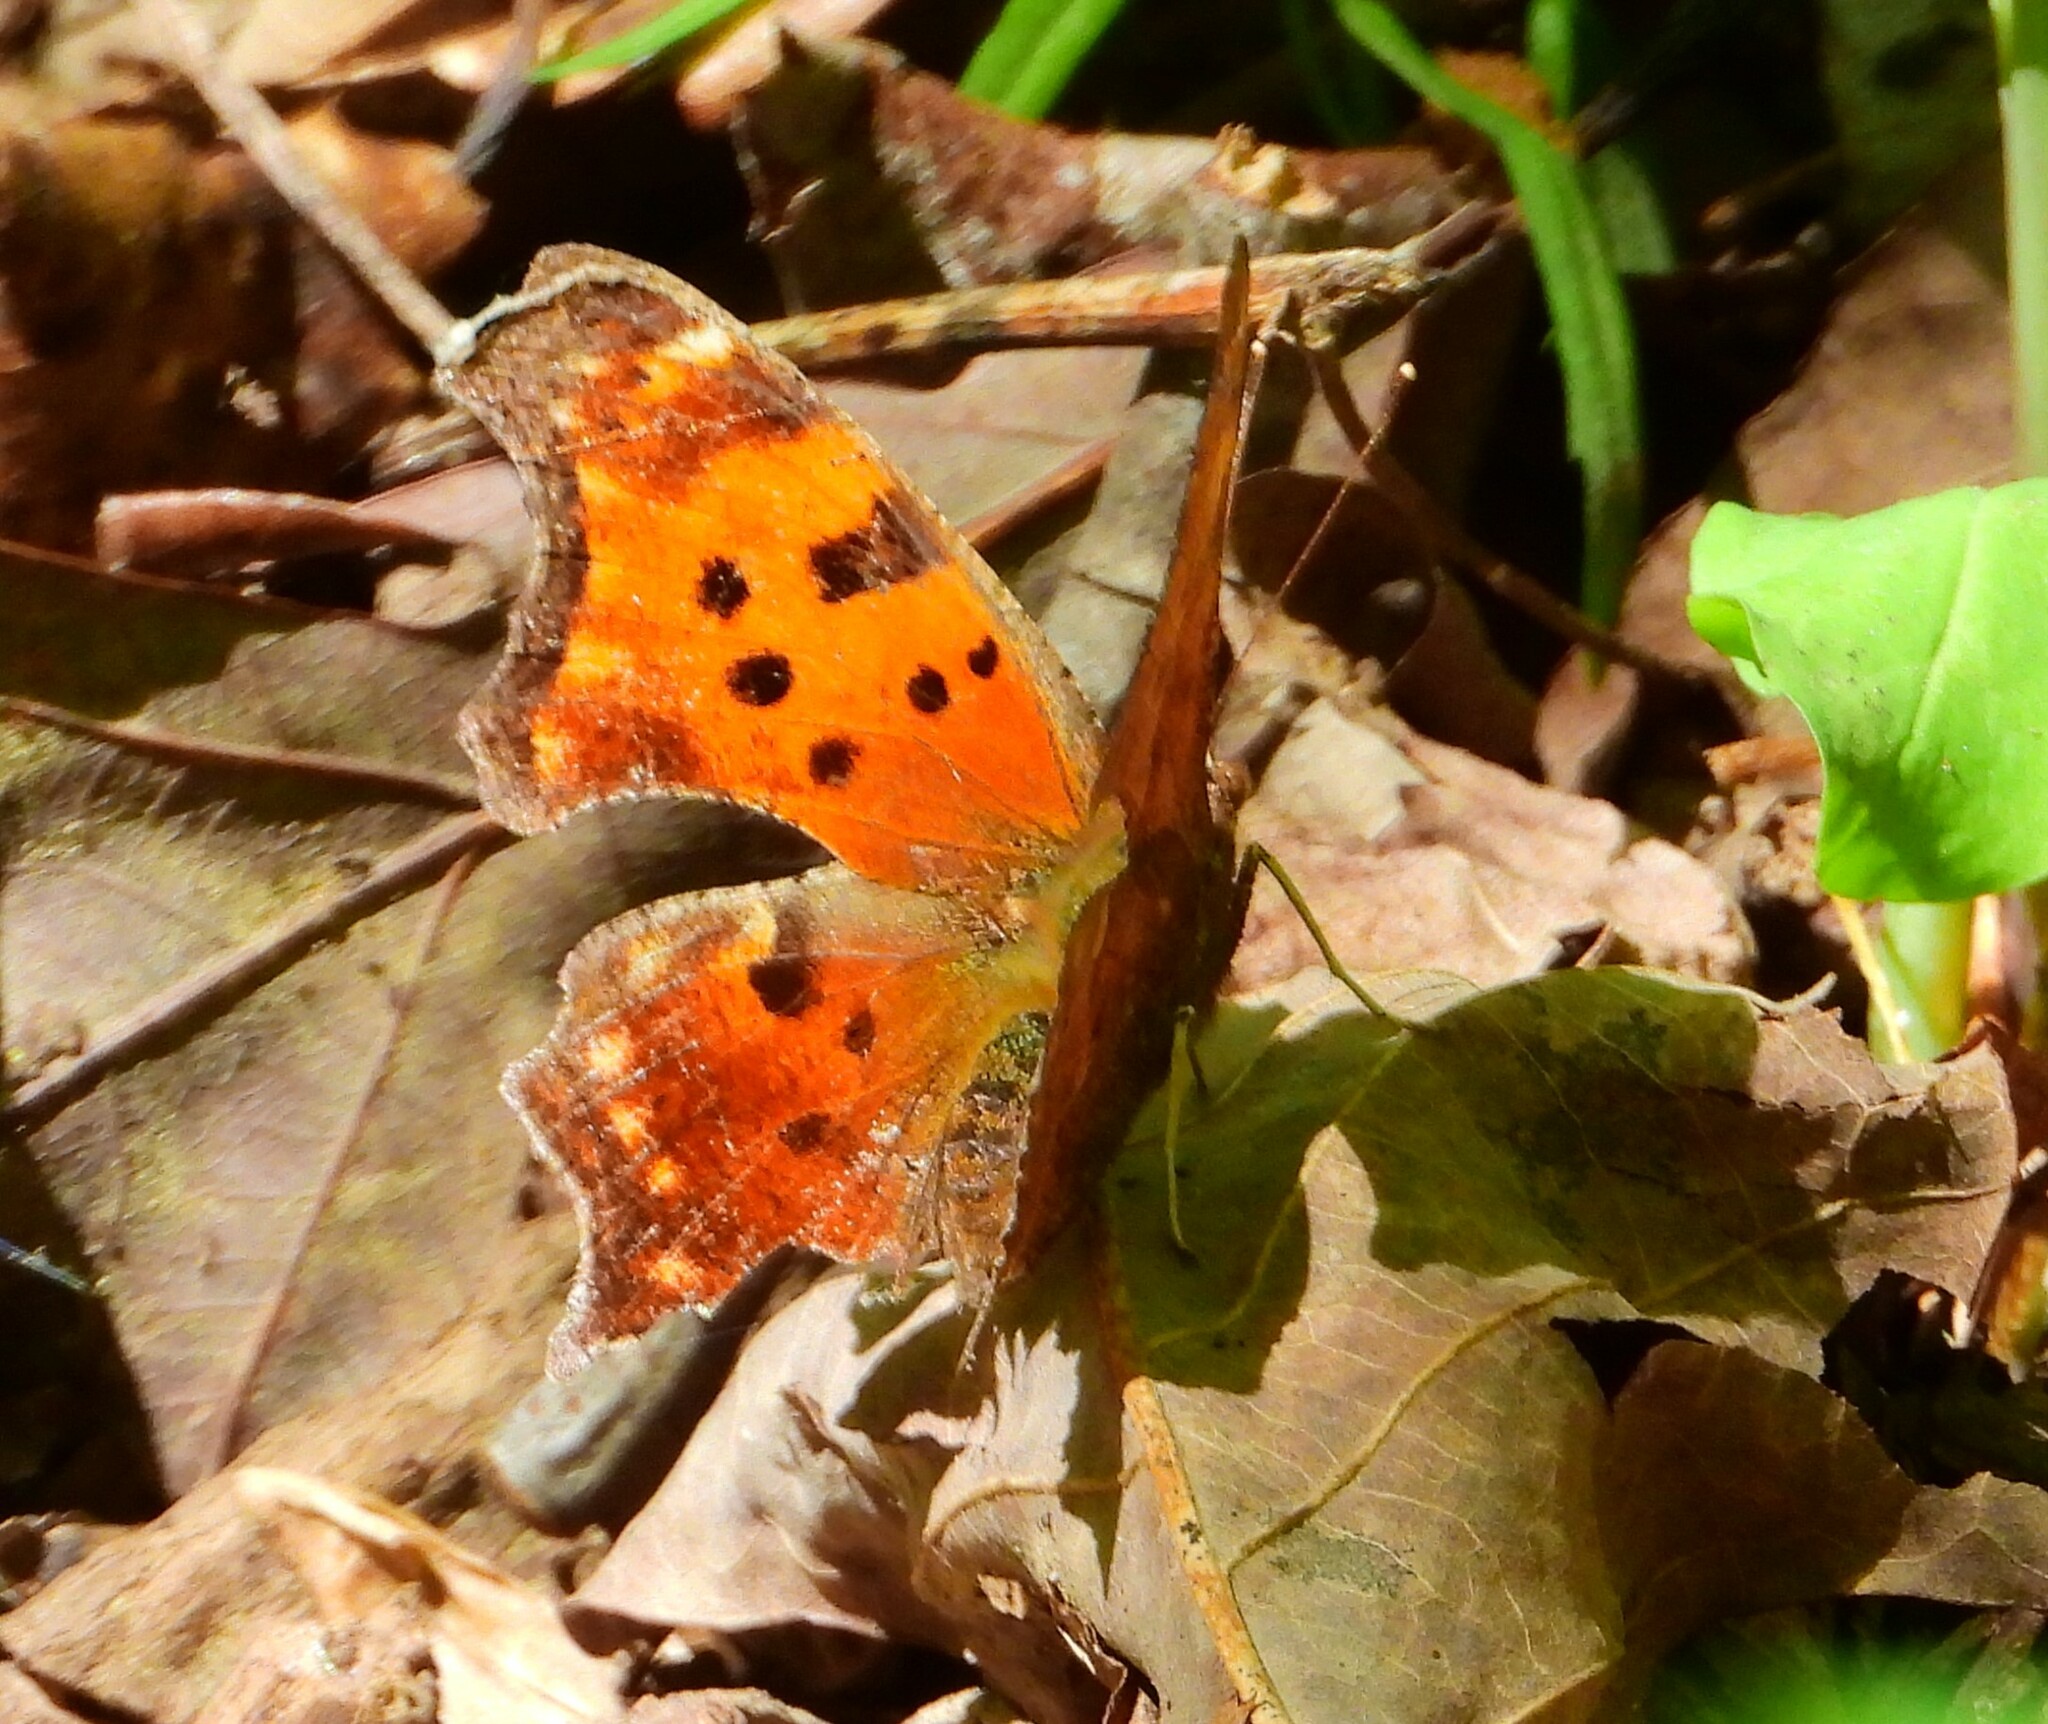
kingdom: Animalia
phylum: Arthropoda
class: Insecta
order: Lepidoptera
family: Nymphalidae
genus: Polygonia
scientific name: Polygonia comma
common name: Eastern comma
